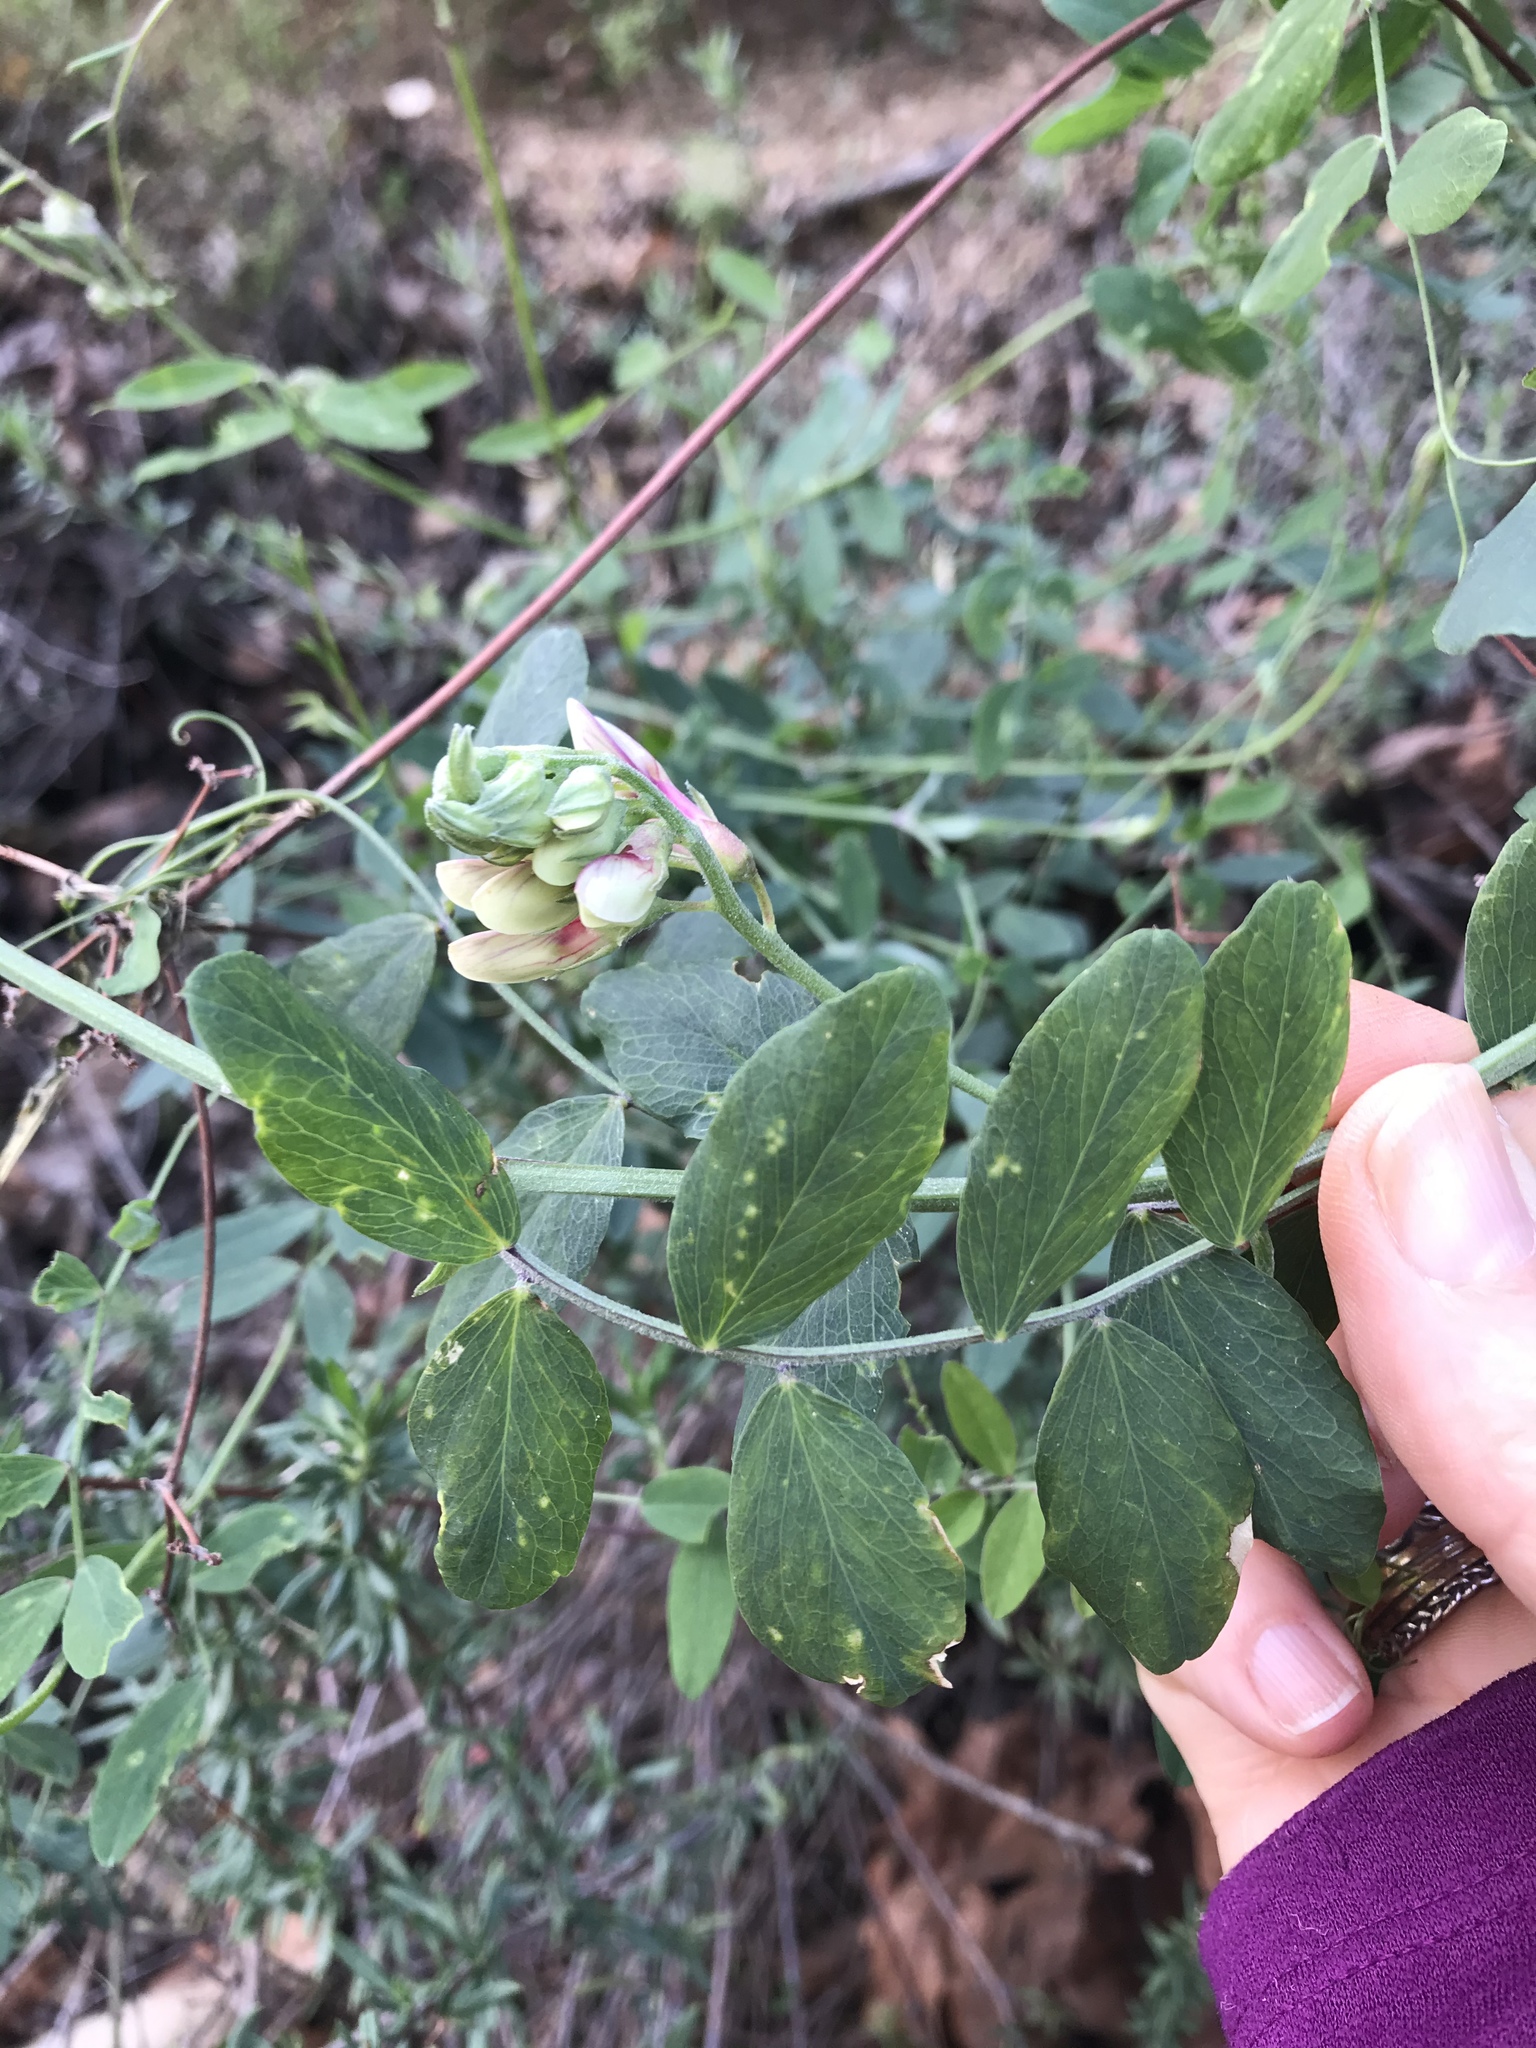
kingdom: Plantae
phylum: Tracheophyta
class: Magnoliopsida
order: Fabales
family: Fabaceae
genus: Lathyrus
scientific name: Lathyrus vestitus
